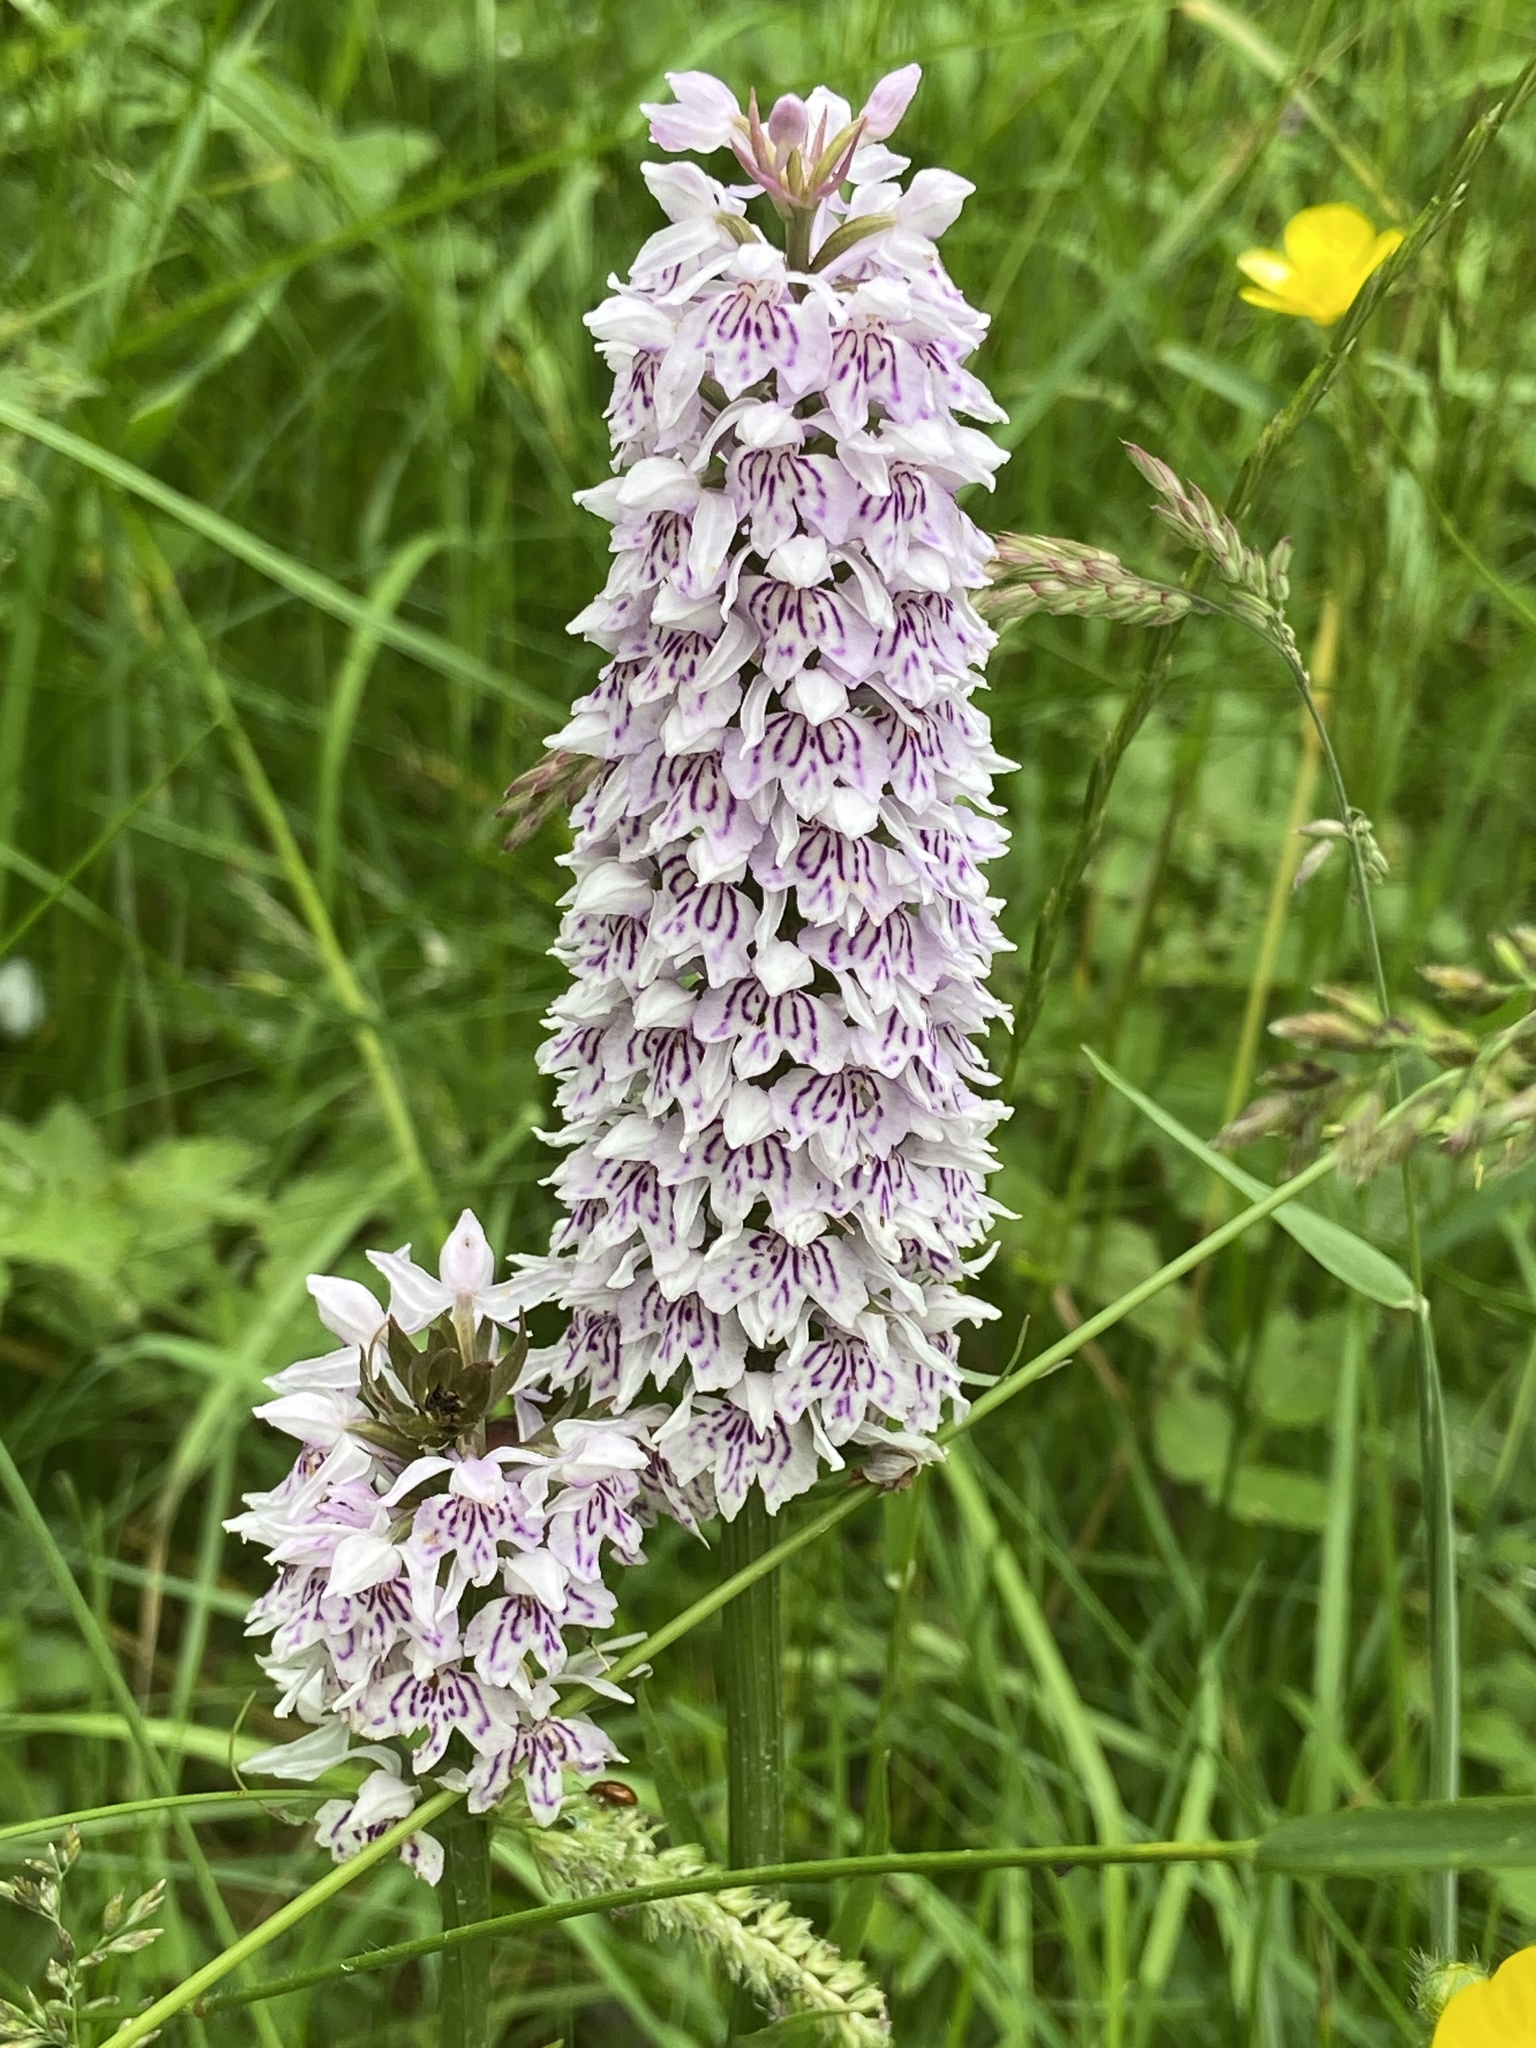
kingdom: Plantae
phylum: Tracheophyta
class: Liliopsida
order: Asparagales
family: Orchidaceae
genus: Dactylorhiza
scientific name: Dactylorhiza maculata
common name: Heath spotted-orchid
